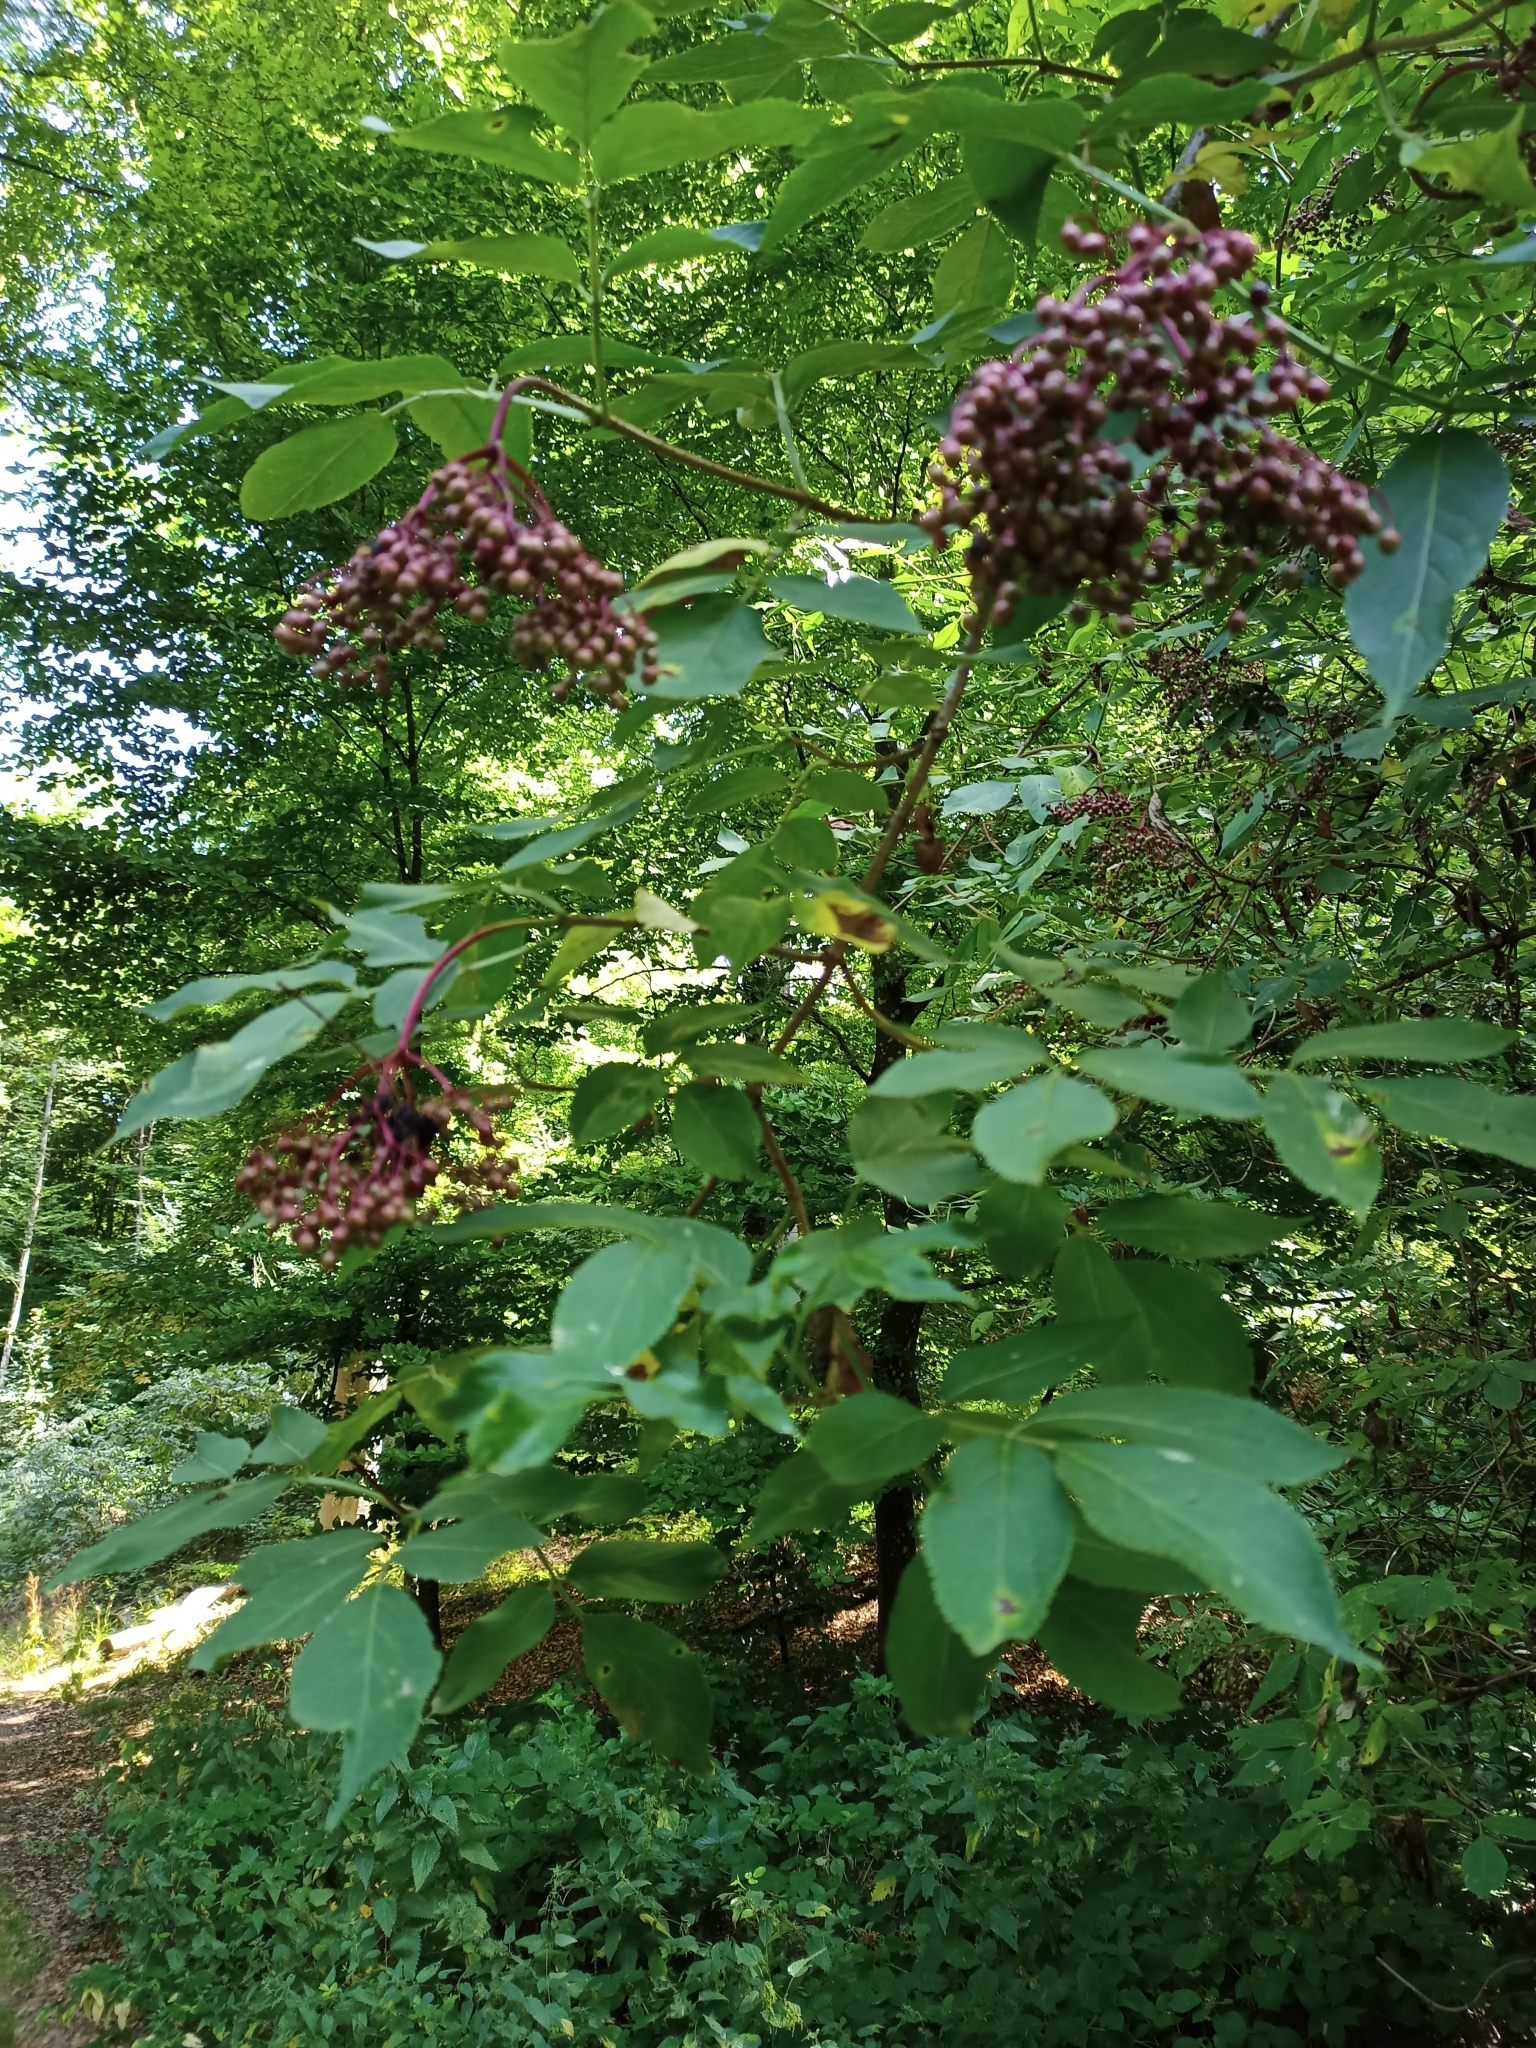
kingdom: Plantae
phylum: Tracheophyta
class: Magnoliopsida
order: Dipsacales
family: Viburnaceae
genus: Sambucus
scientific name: Sambucus nigra
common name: Elder
